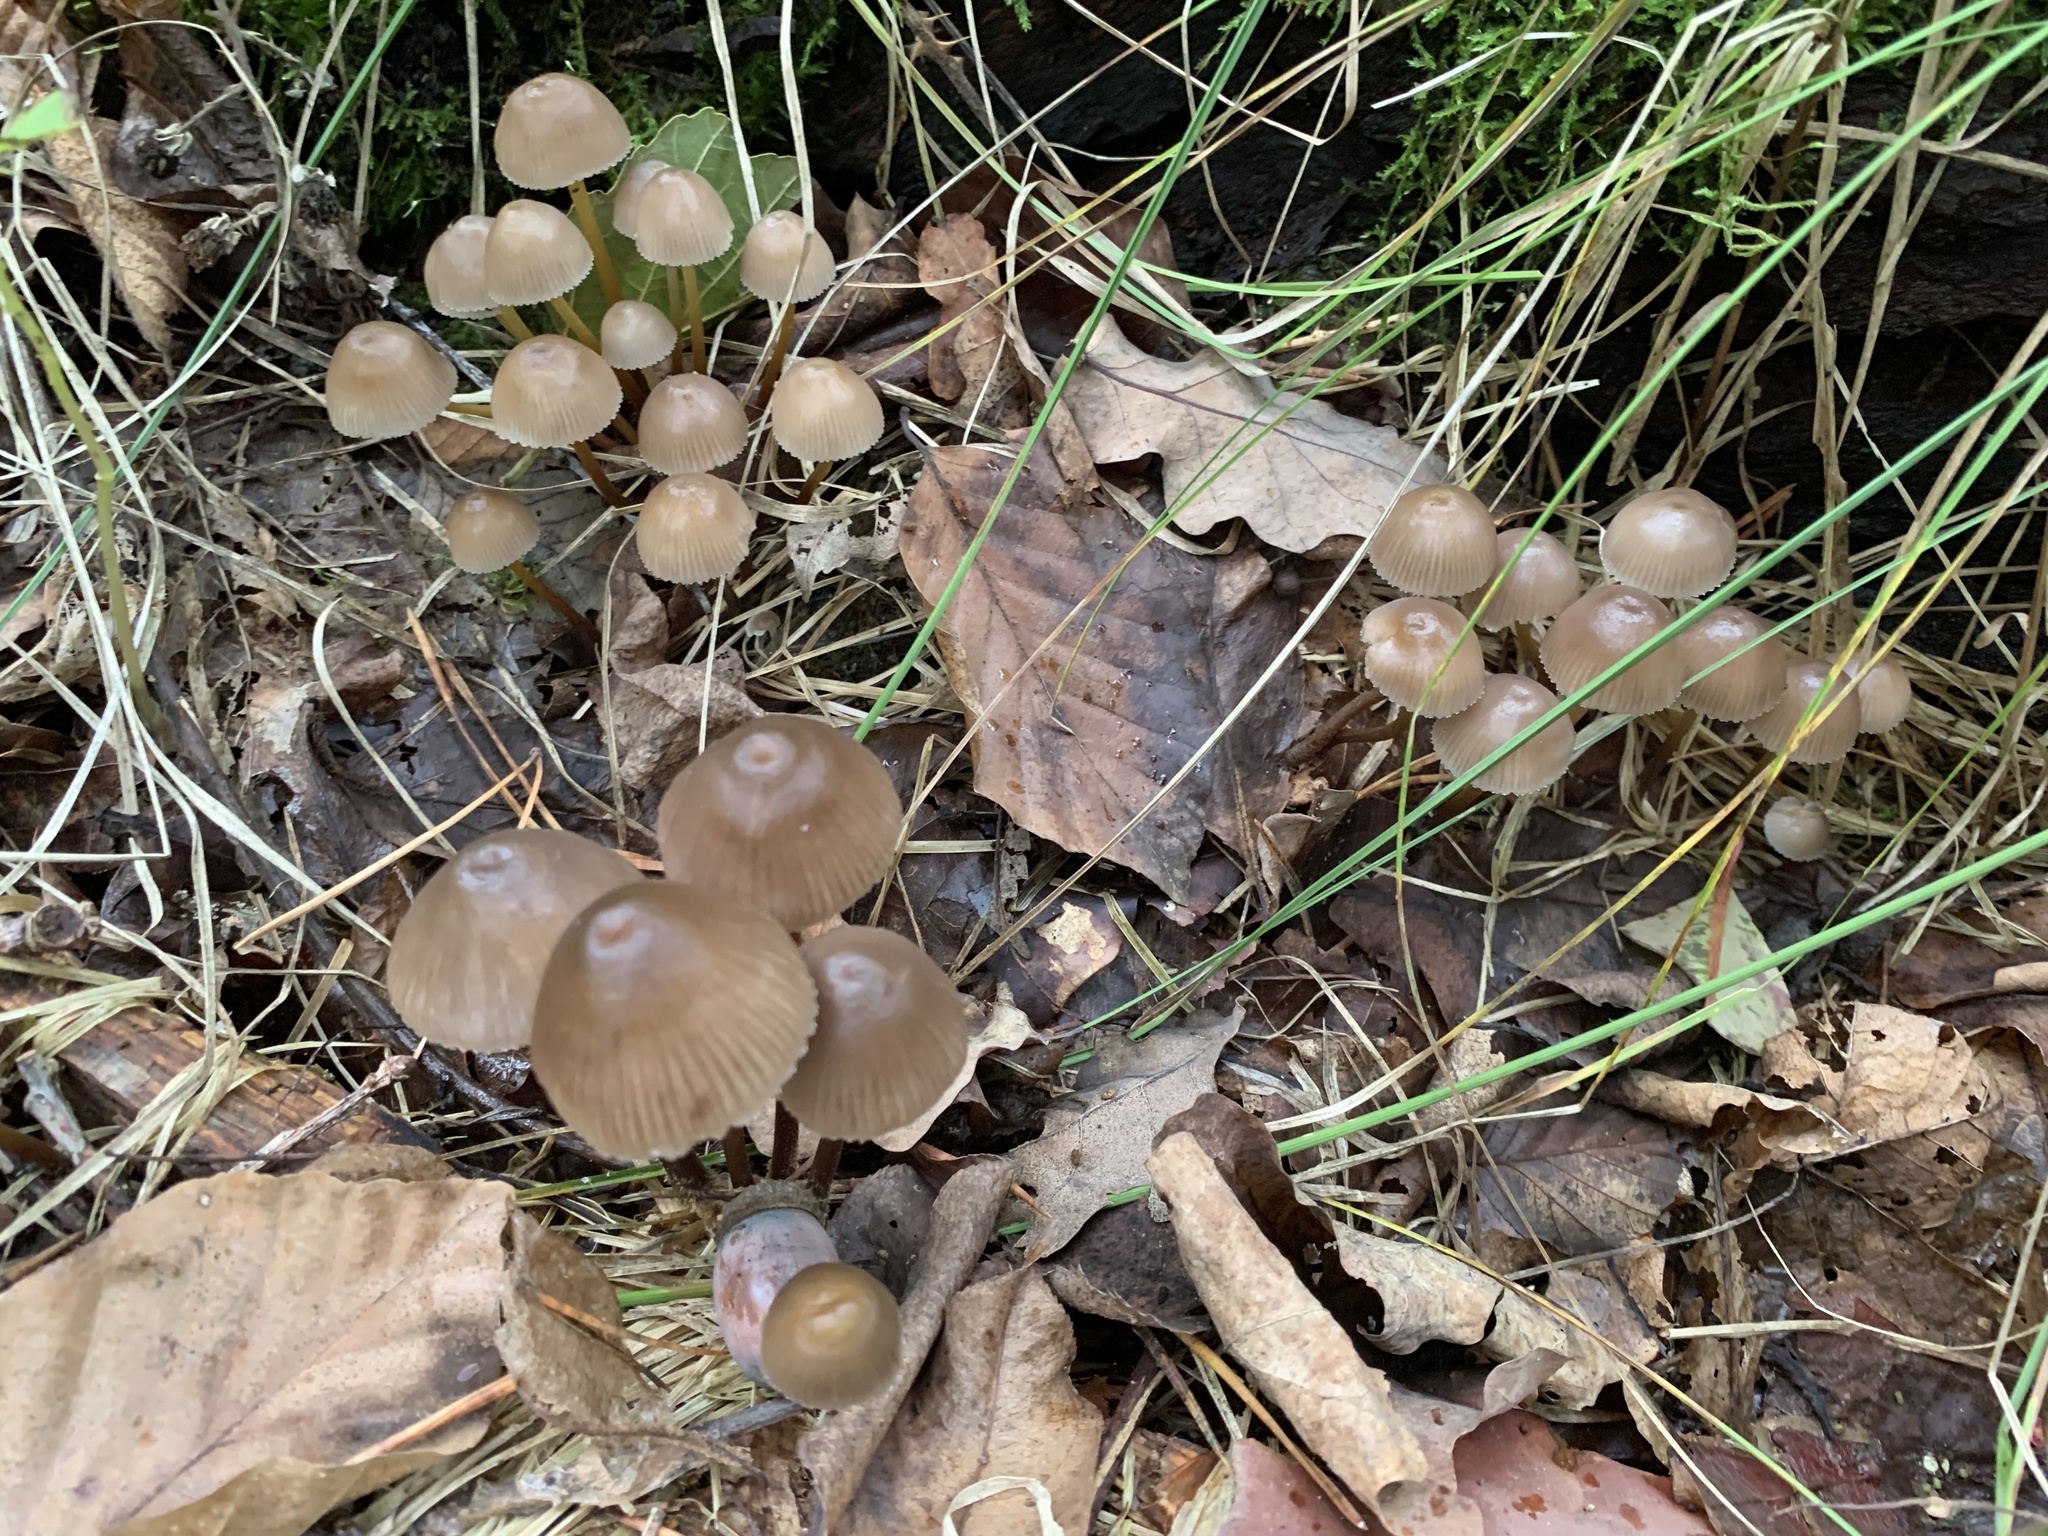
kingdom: Fungi
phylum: Basidiomycota
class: Agaricomycetes
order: Agaricales
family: Mycenaceae
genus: Mycena
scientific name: Mycena inclinata
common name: Clustered bonnet
